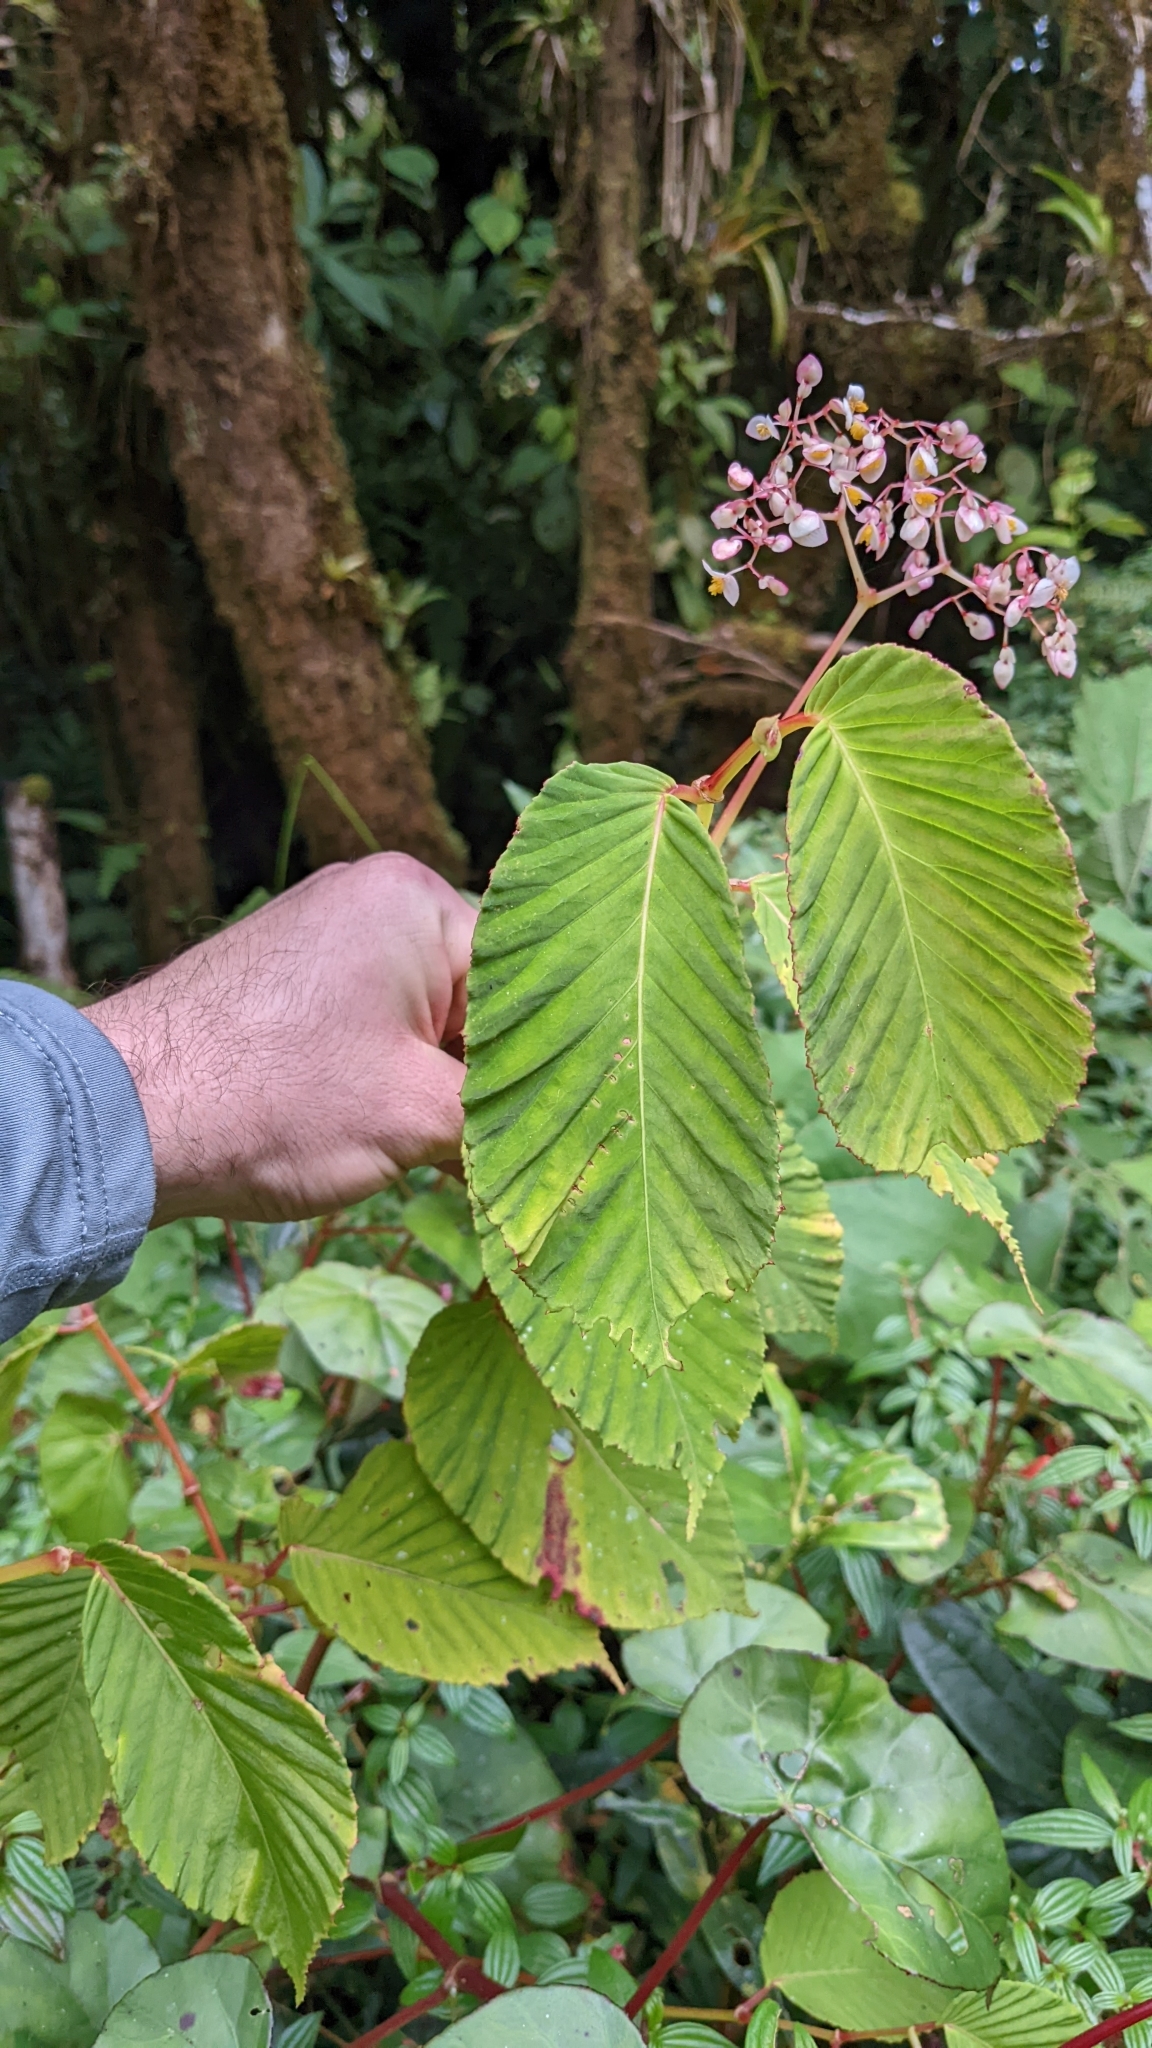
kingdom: Plantae
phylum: Tracheophyta
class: Magnoliopsida
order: Cucurbitales
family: Begoniaceae
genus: Begonia
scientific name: Begonia convallariodora
